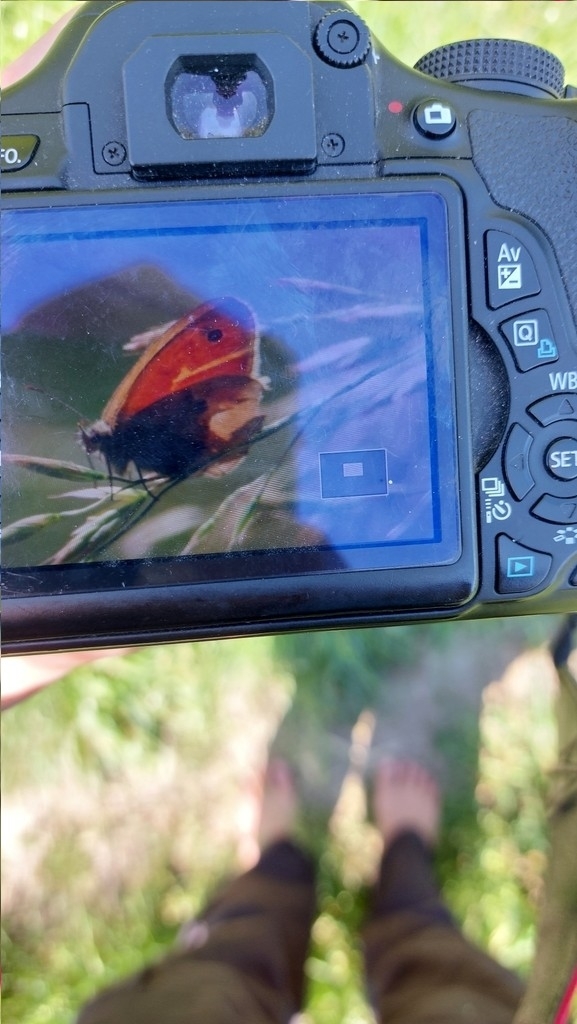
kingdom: Animalia
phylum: Arthropoda
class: Insecta
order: Lepidoptera
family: Nymphalidae
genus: Coenonympha
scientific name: Coenonympha pamphilus
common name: Small heath
